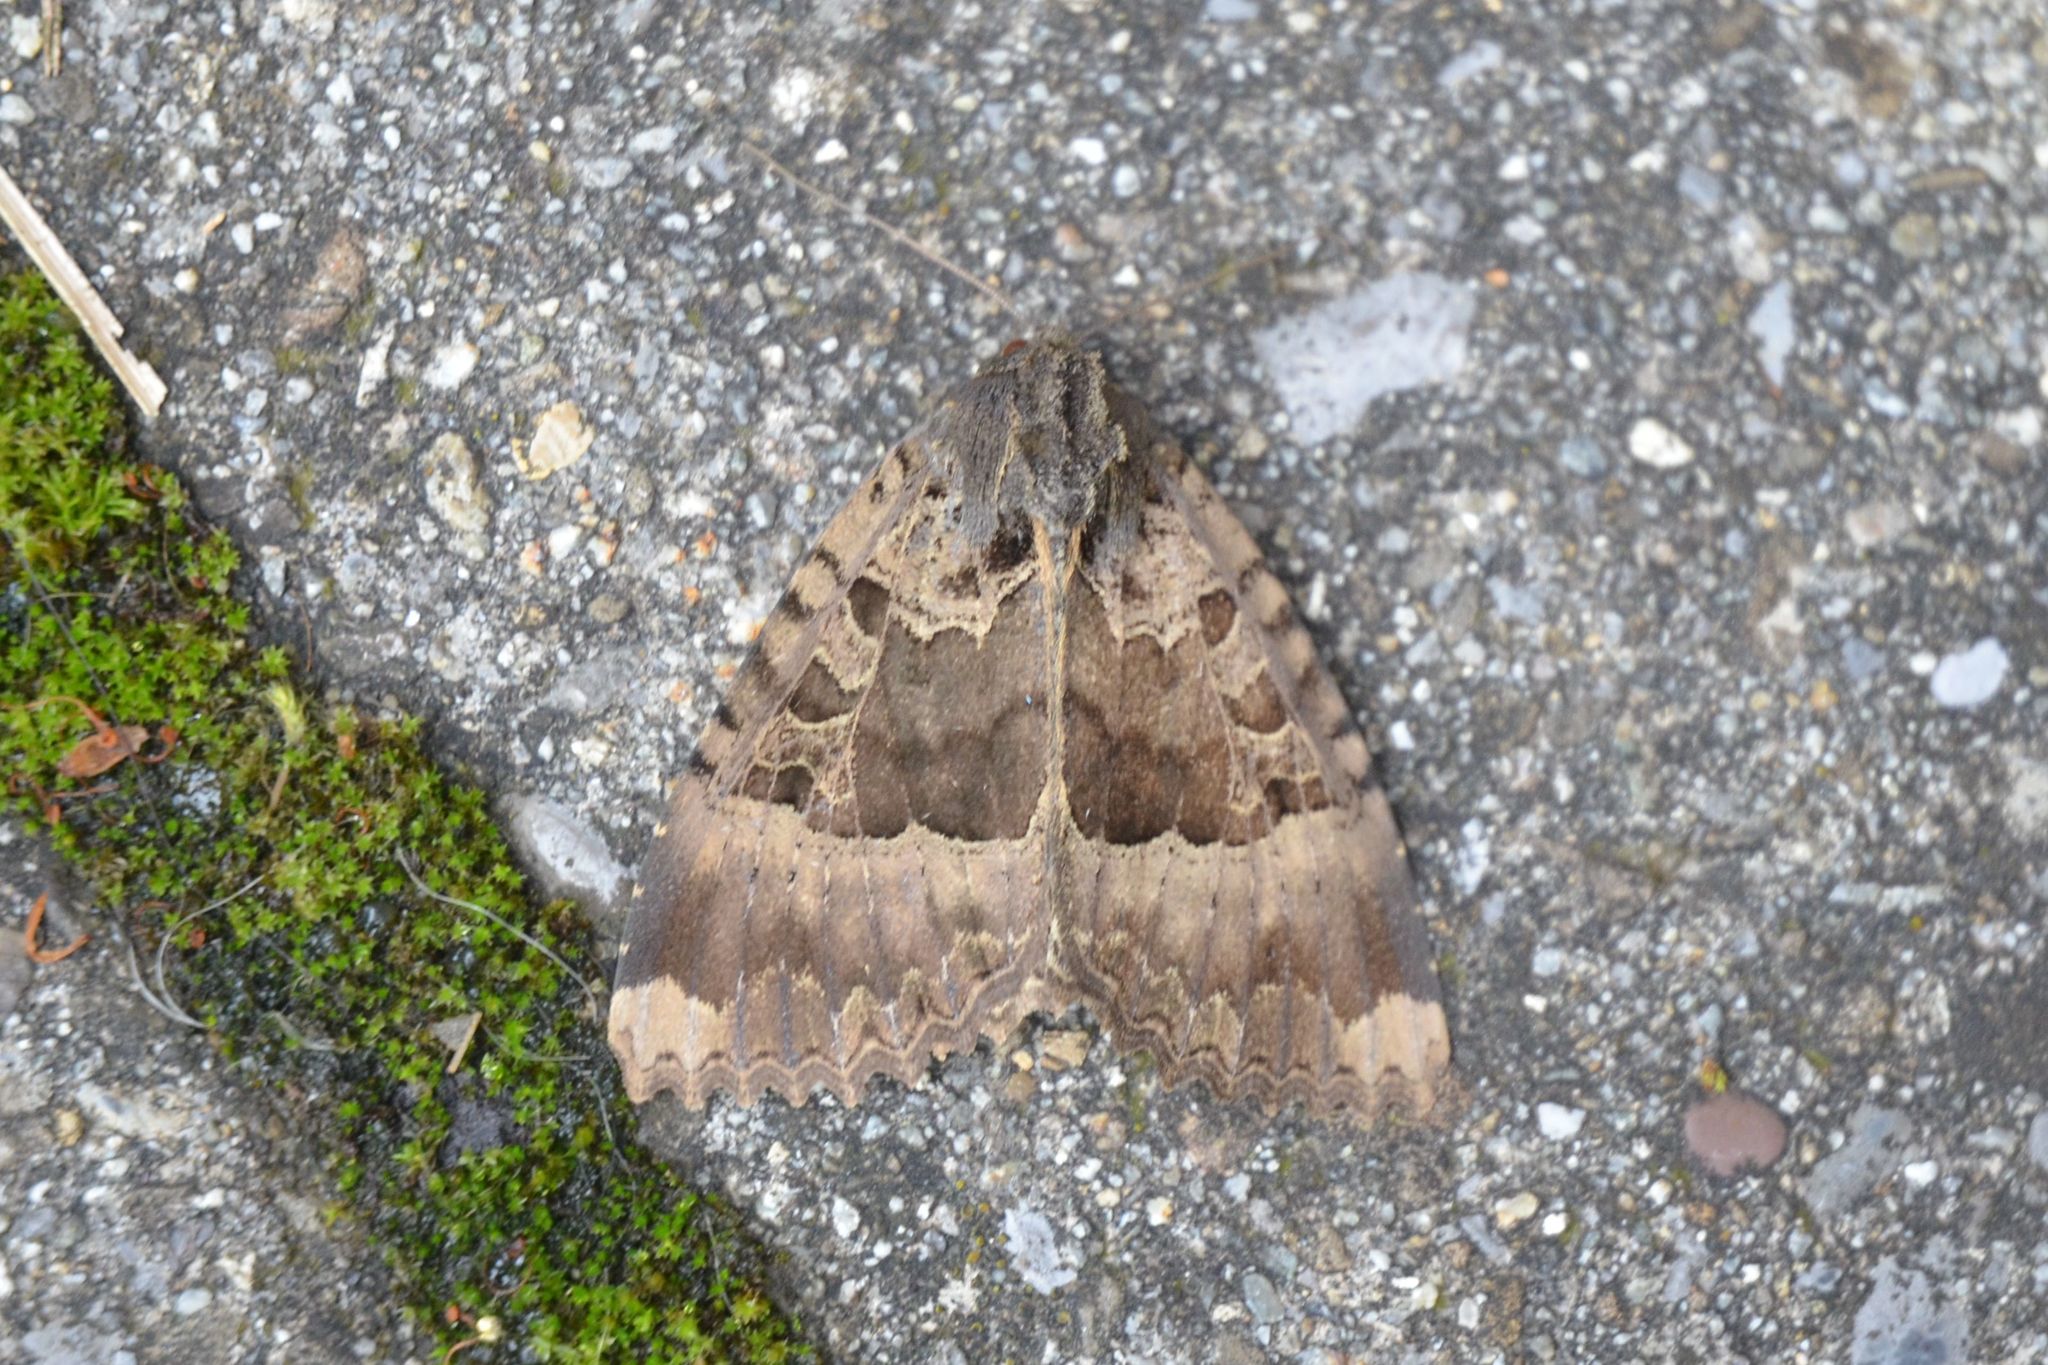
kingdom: Animalia
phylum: Arthropoda
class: Insecta
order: Lepidoptera
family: Noctuidae
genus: Mormo
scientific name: Mormo maura
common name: Old lady
